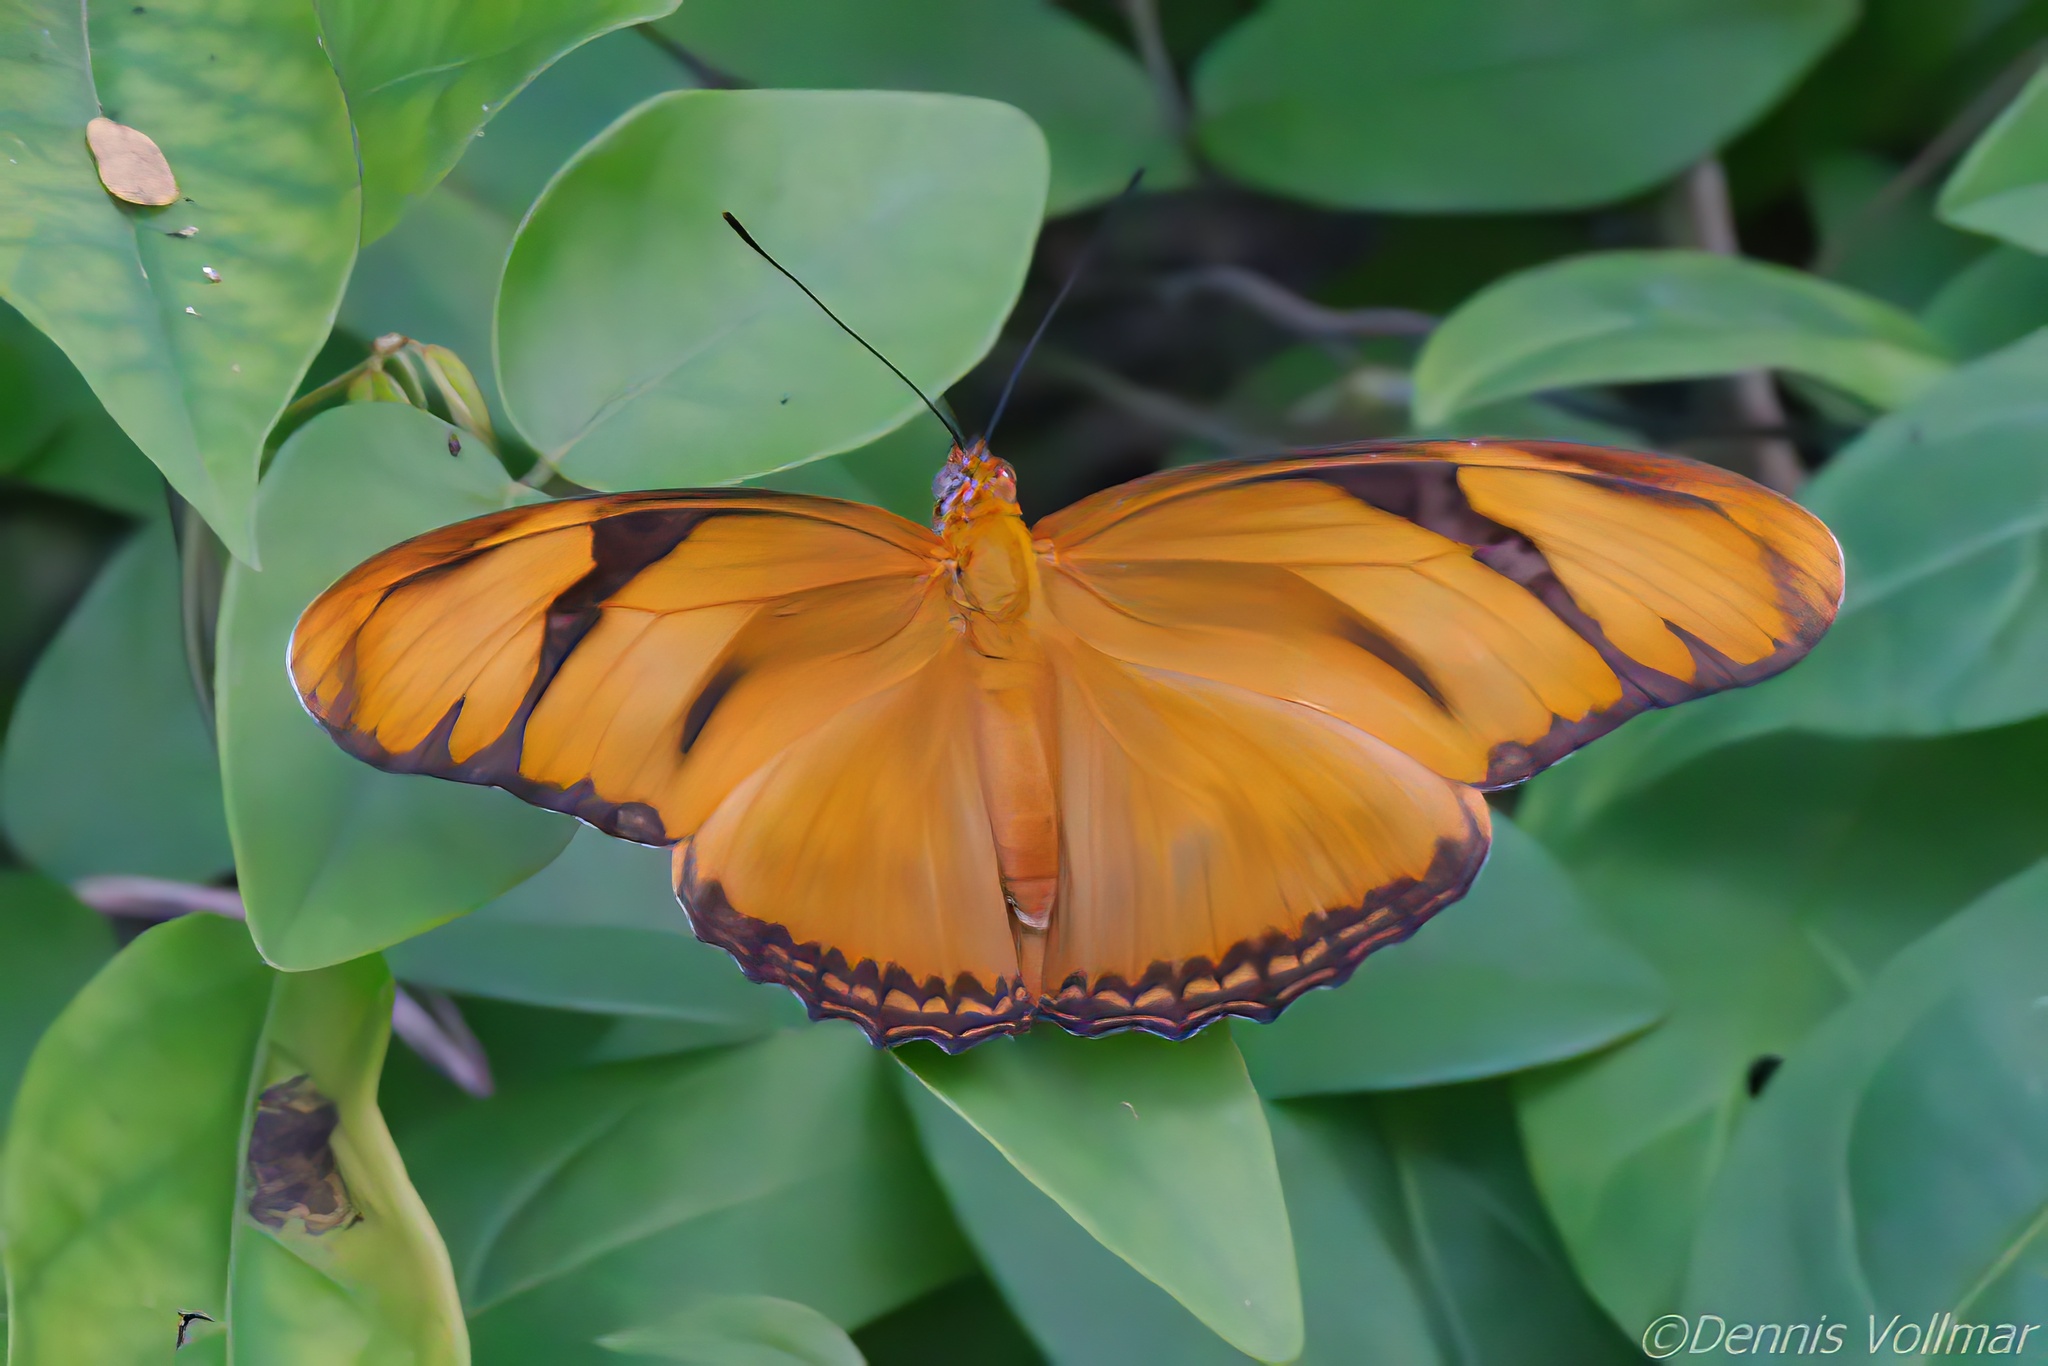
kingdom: Animalia
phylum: Arthropoda
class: Insecta
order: Lepidoptera
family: Nymphalidae
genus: Dryas
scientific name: Dryas iulia
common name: Flambeau
